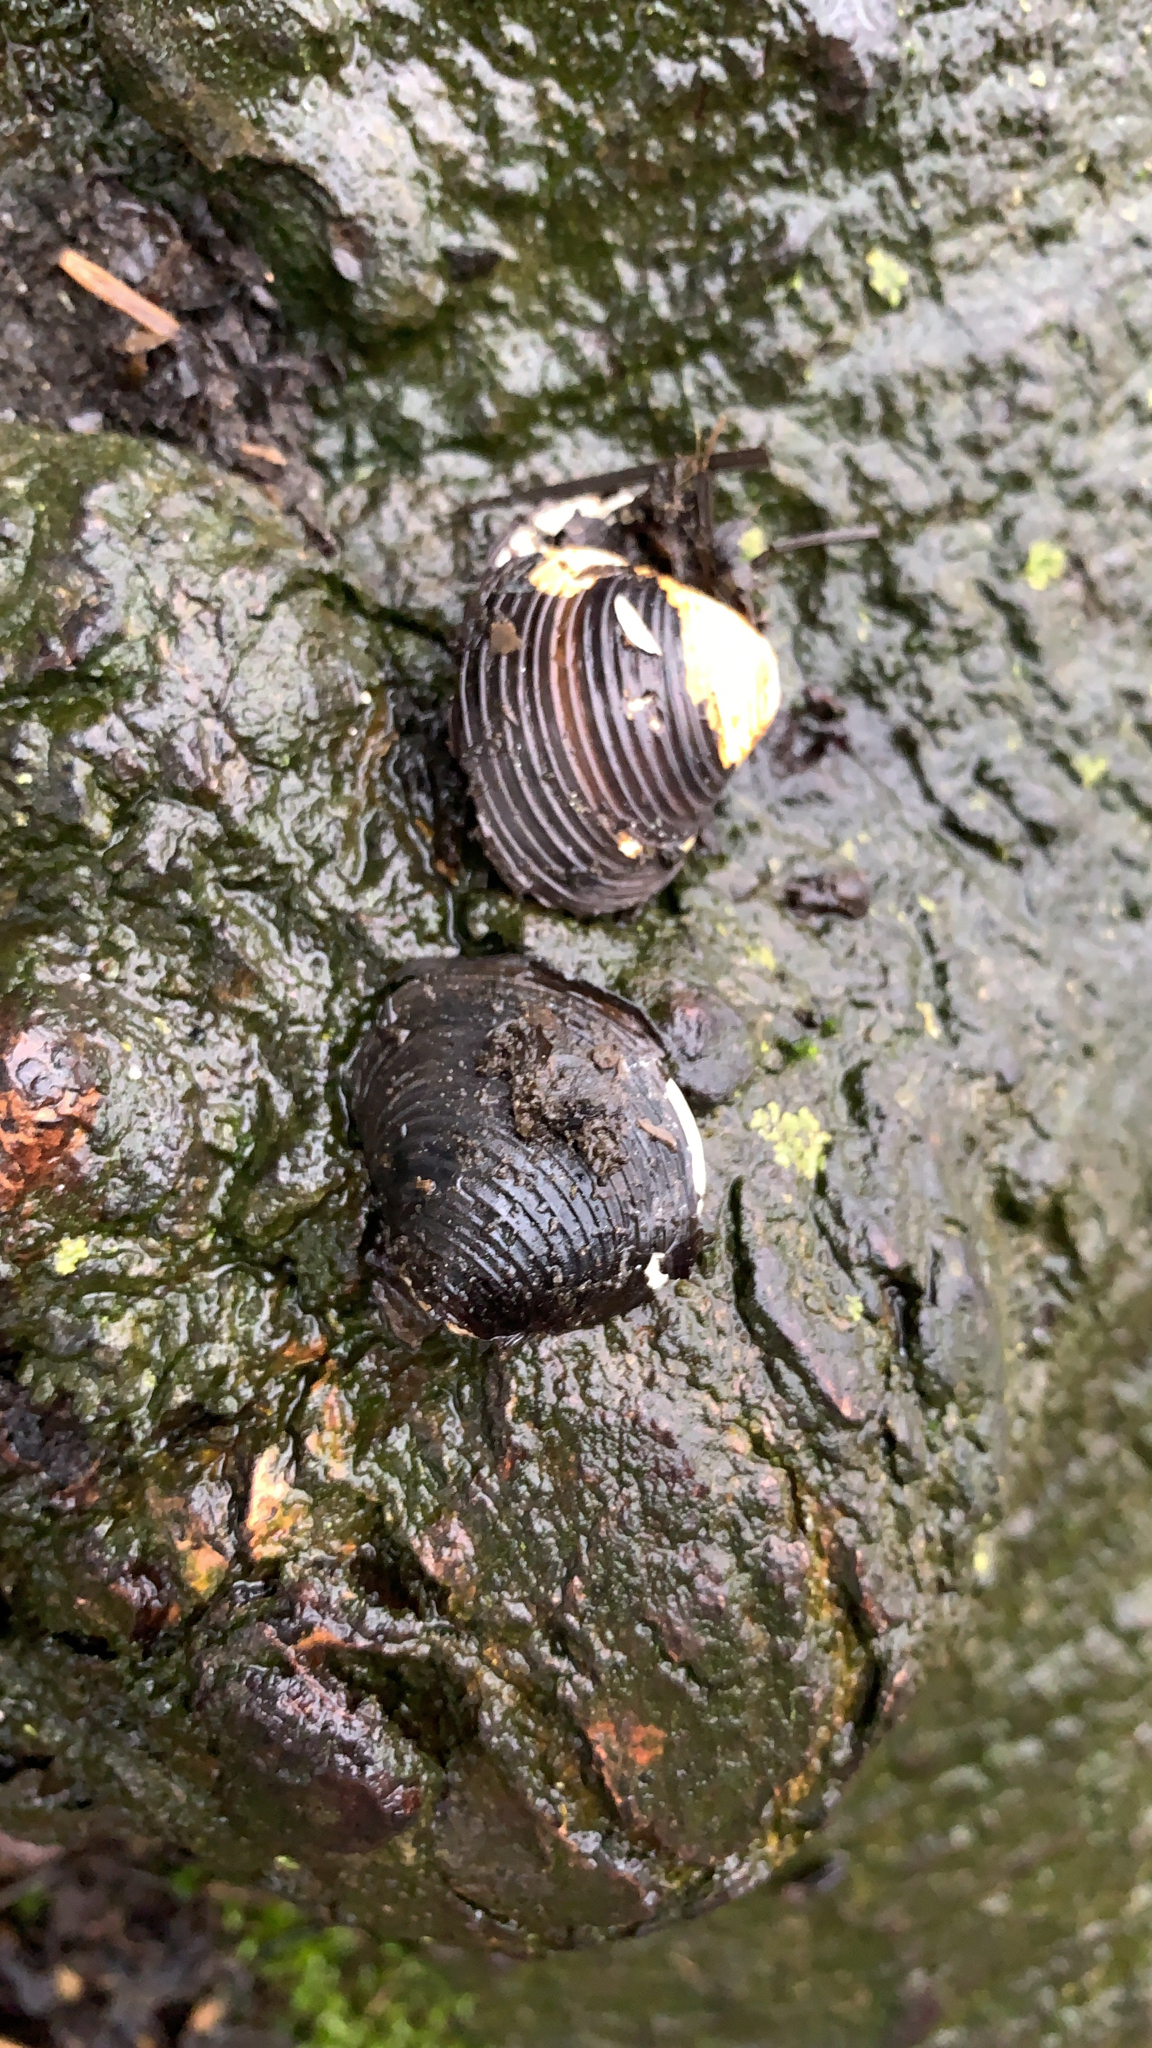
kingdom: Animalia
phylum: Mollusca
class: Bivalvia
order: Venerida
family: Cyrenidae
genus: Corbicula
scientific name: Corbicula fluminea
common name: Asian clam
